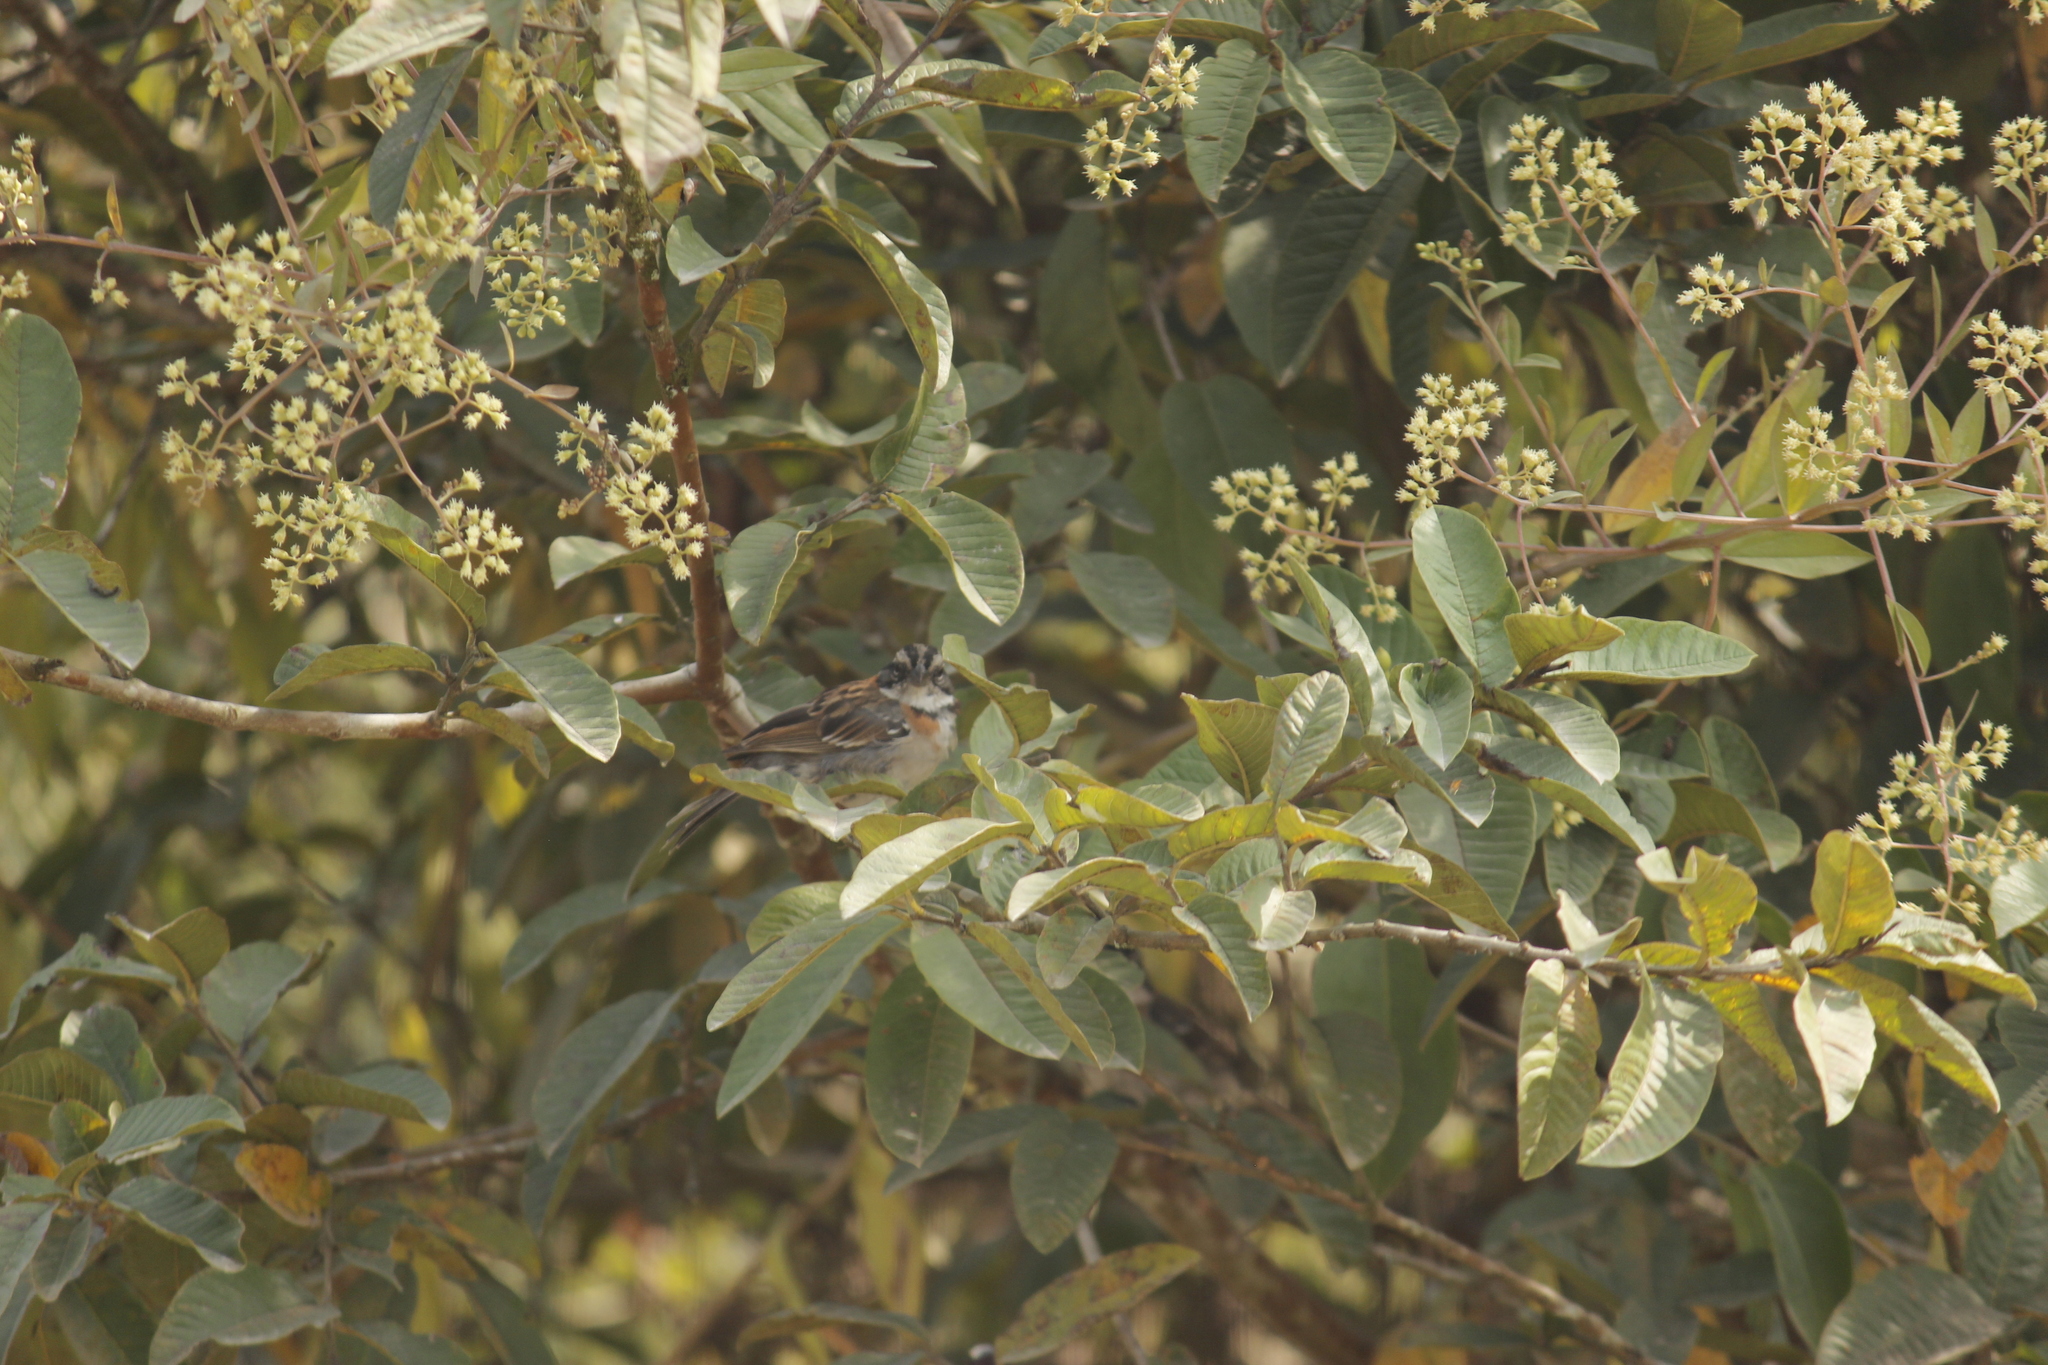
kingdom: Animalia
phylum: Chordata
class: Aves
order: Passeriformes
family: Passerellidae
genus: Zonotrichia
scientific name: Zonotrichia capensis
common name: Rufous-collared sparrow
